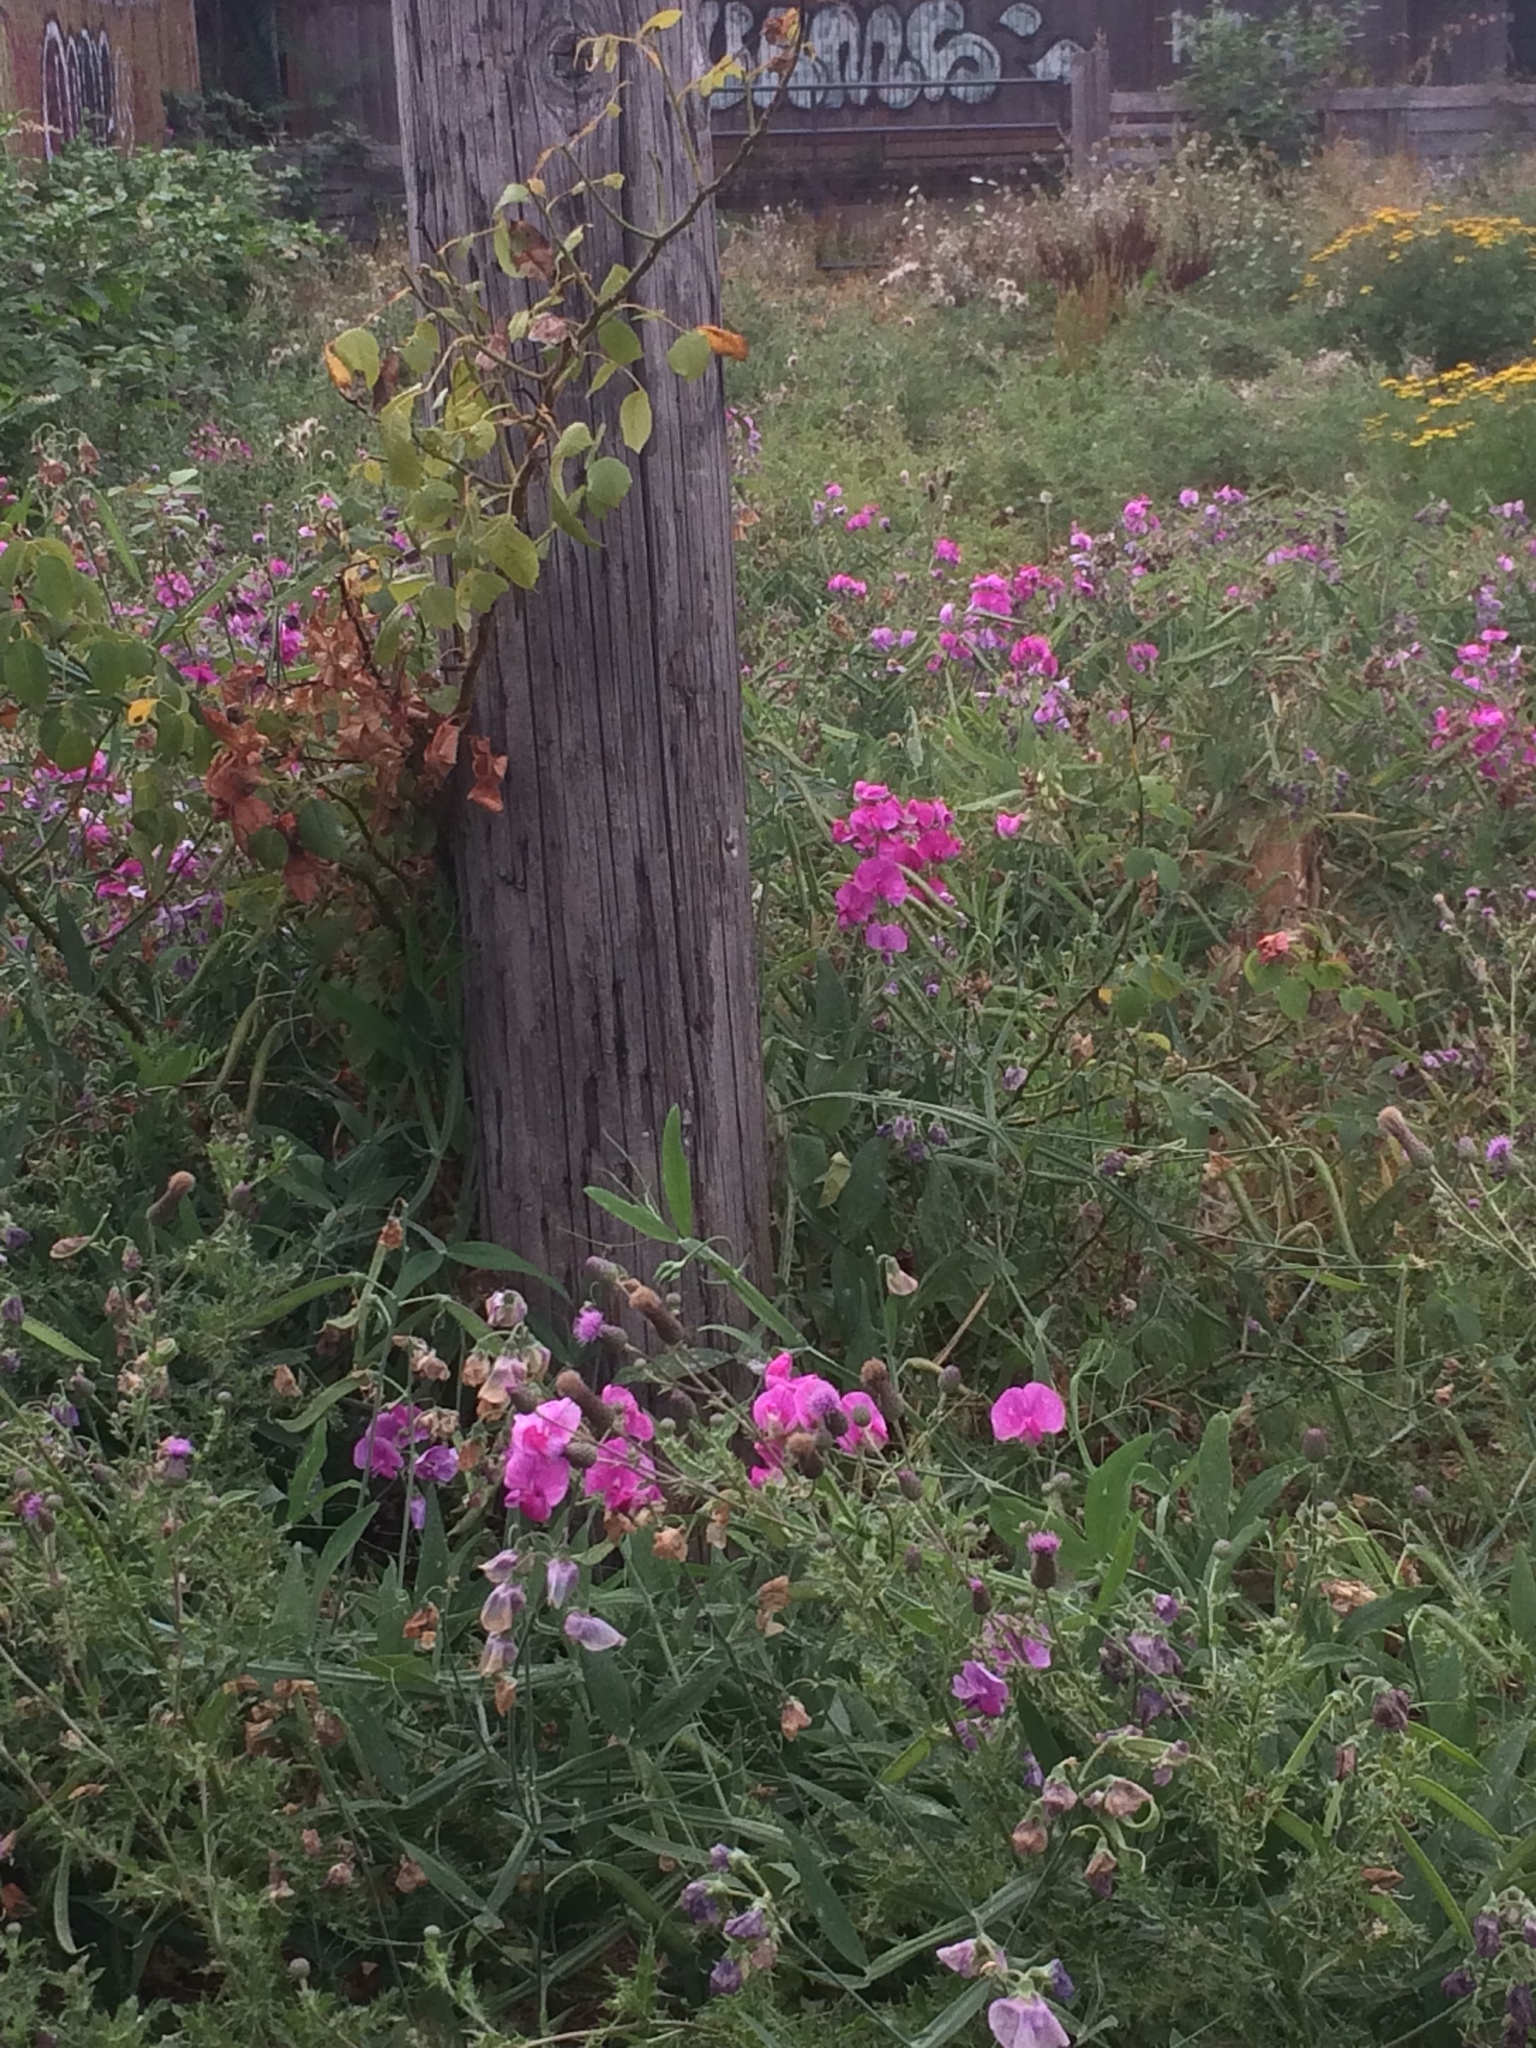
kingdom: Plantae
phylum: Tracheophyta
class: Magnoliopsida
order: Fabales
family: Fabaceae
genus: Lathyrus
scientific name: Lathyrus latifolius
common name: Perennial pea
